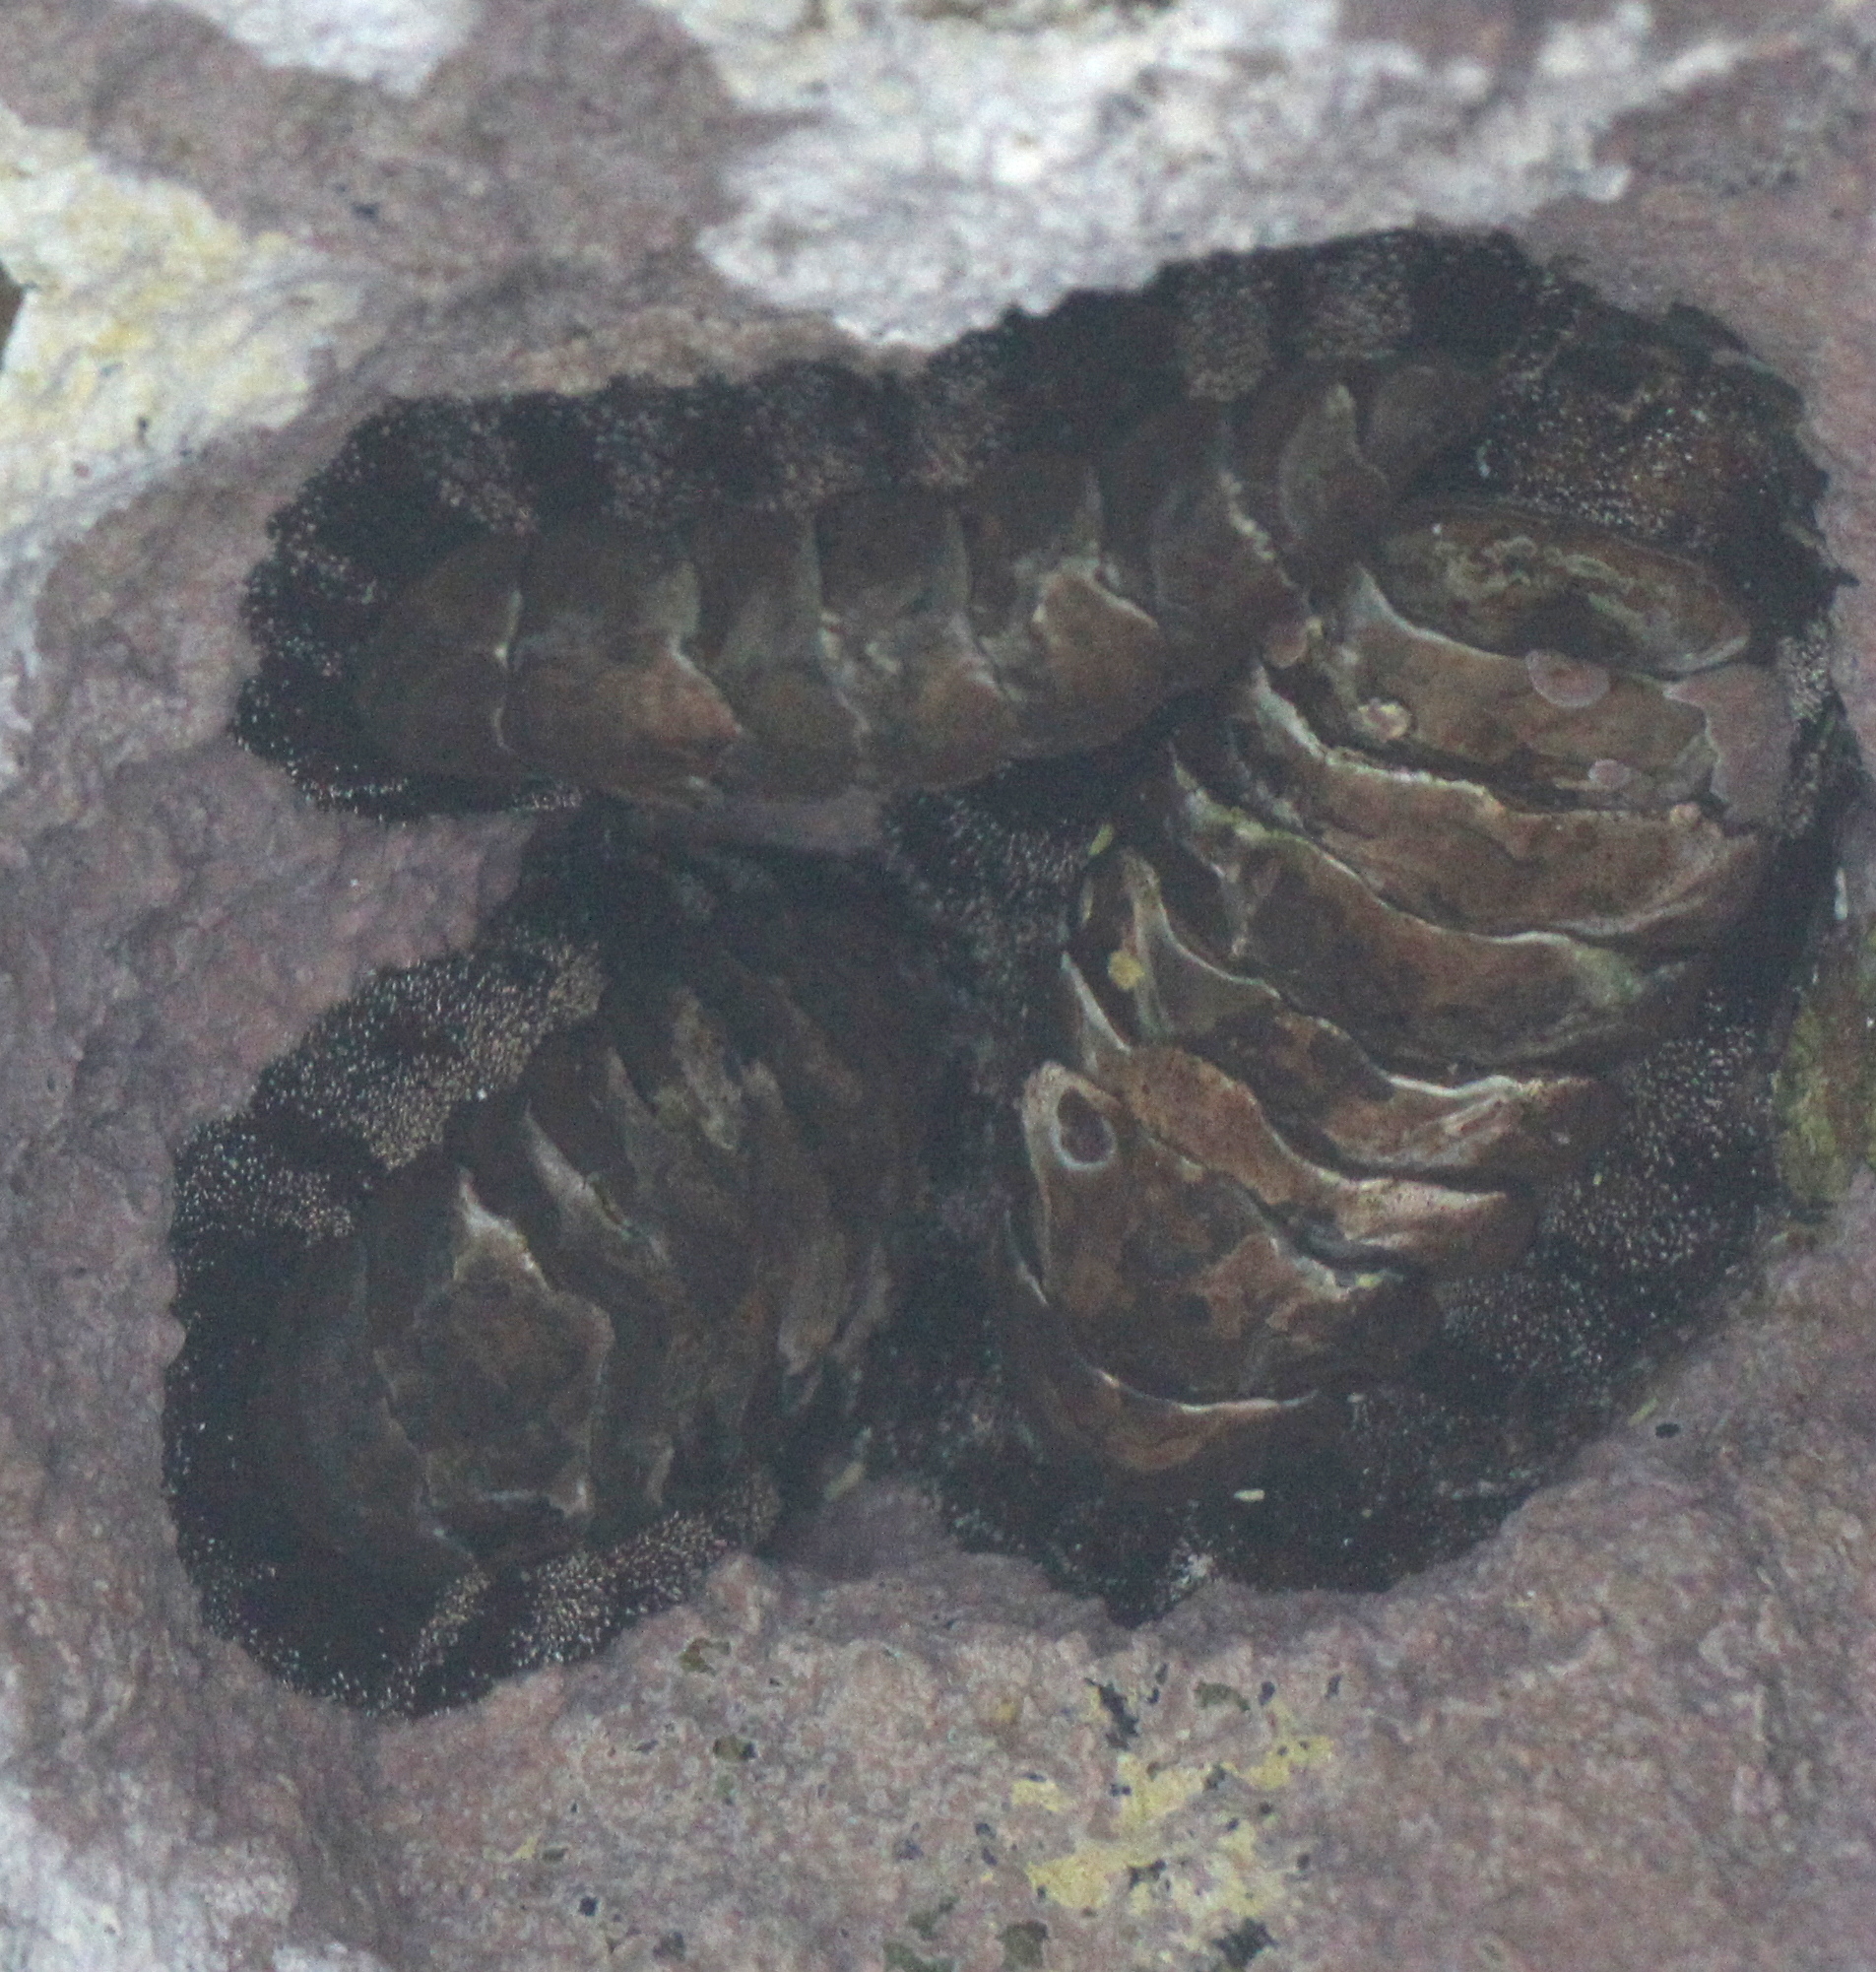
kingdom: Animalia
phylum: Mollusca
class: Polyplacophora
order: Chitonida
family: Chitonidae
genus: Acanthopleura
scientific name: Acanthopleura vaillantii
